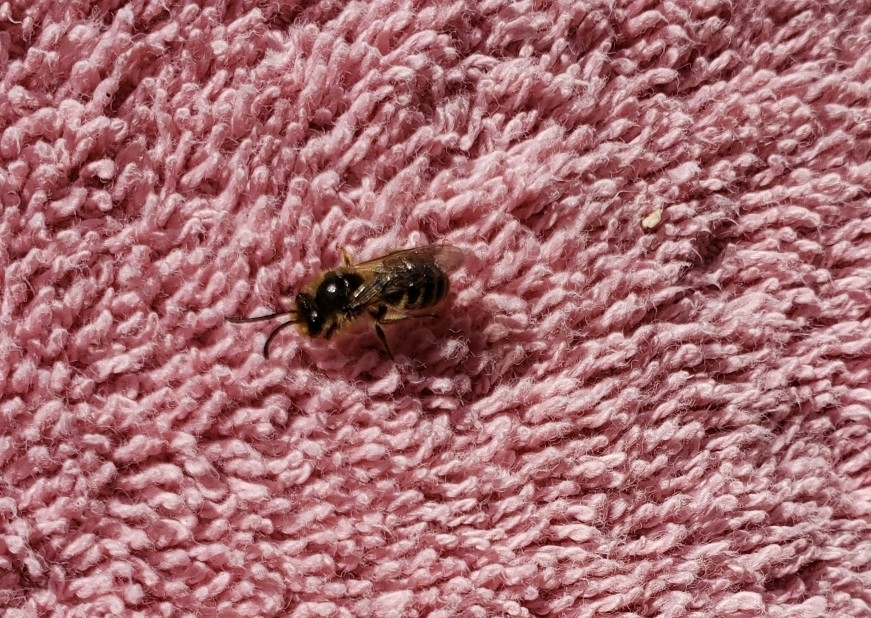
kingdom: Animalia
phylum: Arthropoda
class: Insecta
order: Hymenoptera
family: Colletidae
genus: Colletes
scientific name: Colletes inaequalis
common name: Unequal cellophane bee
